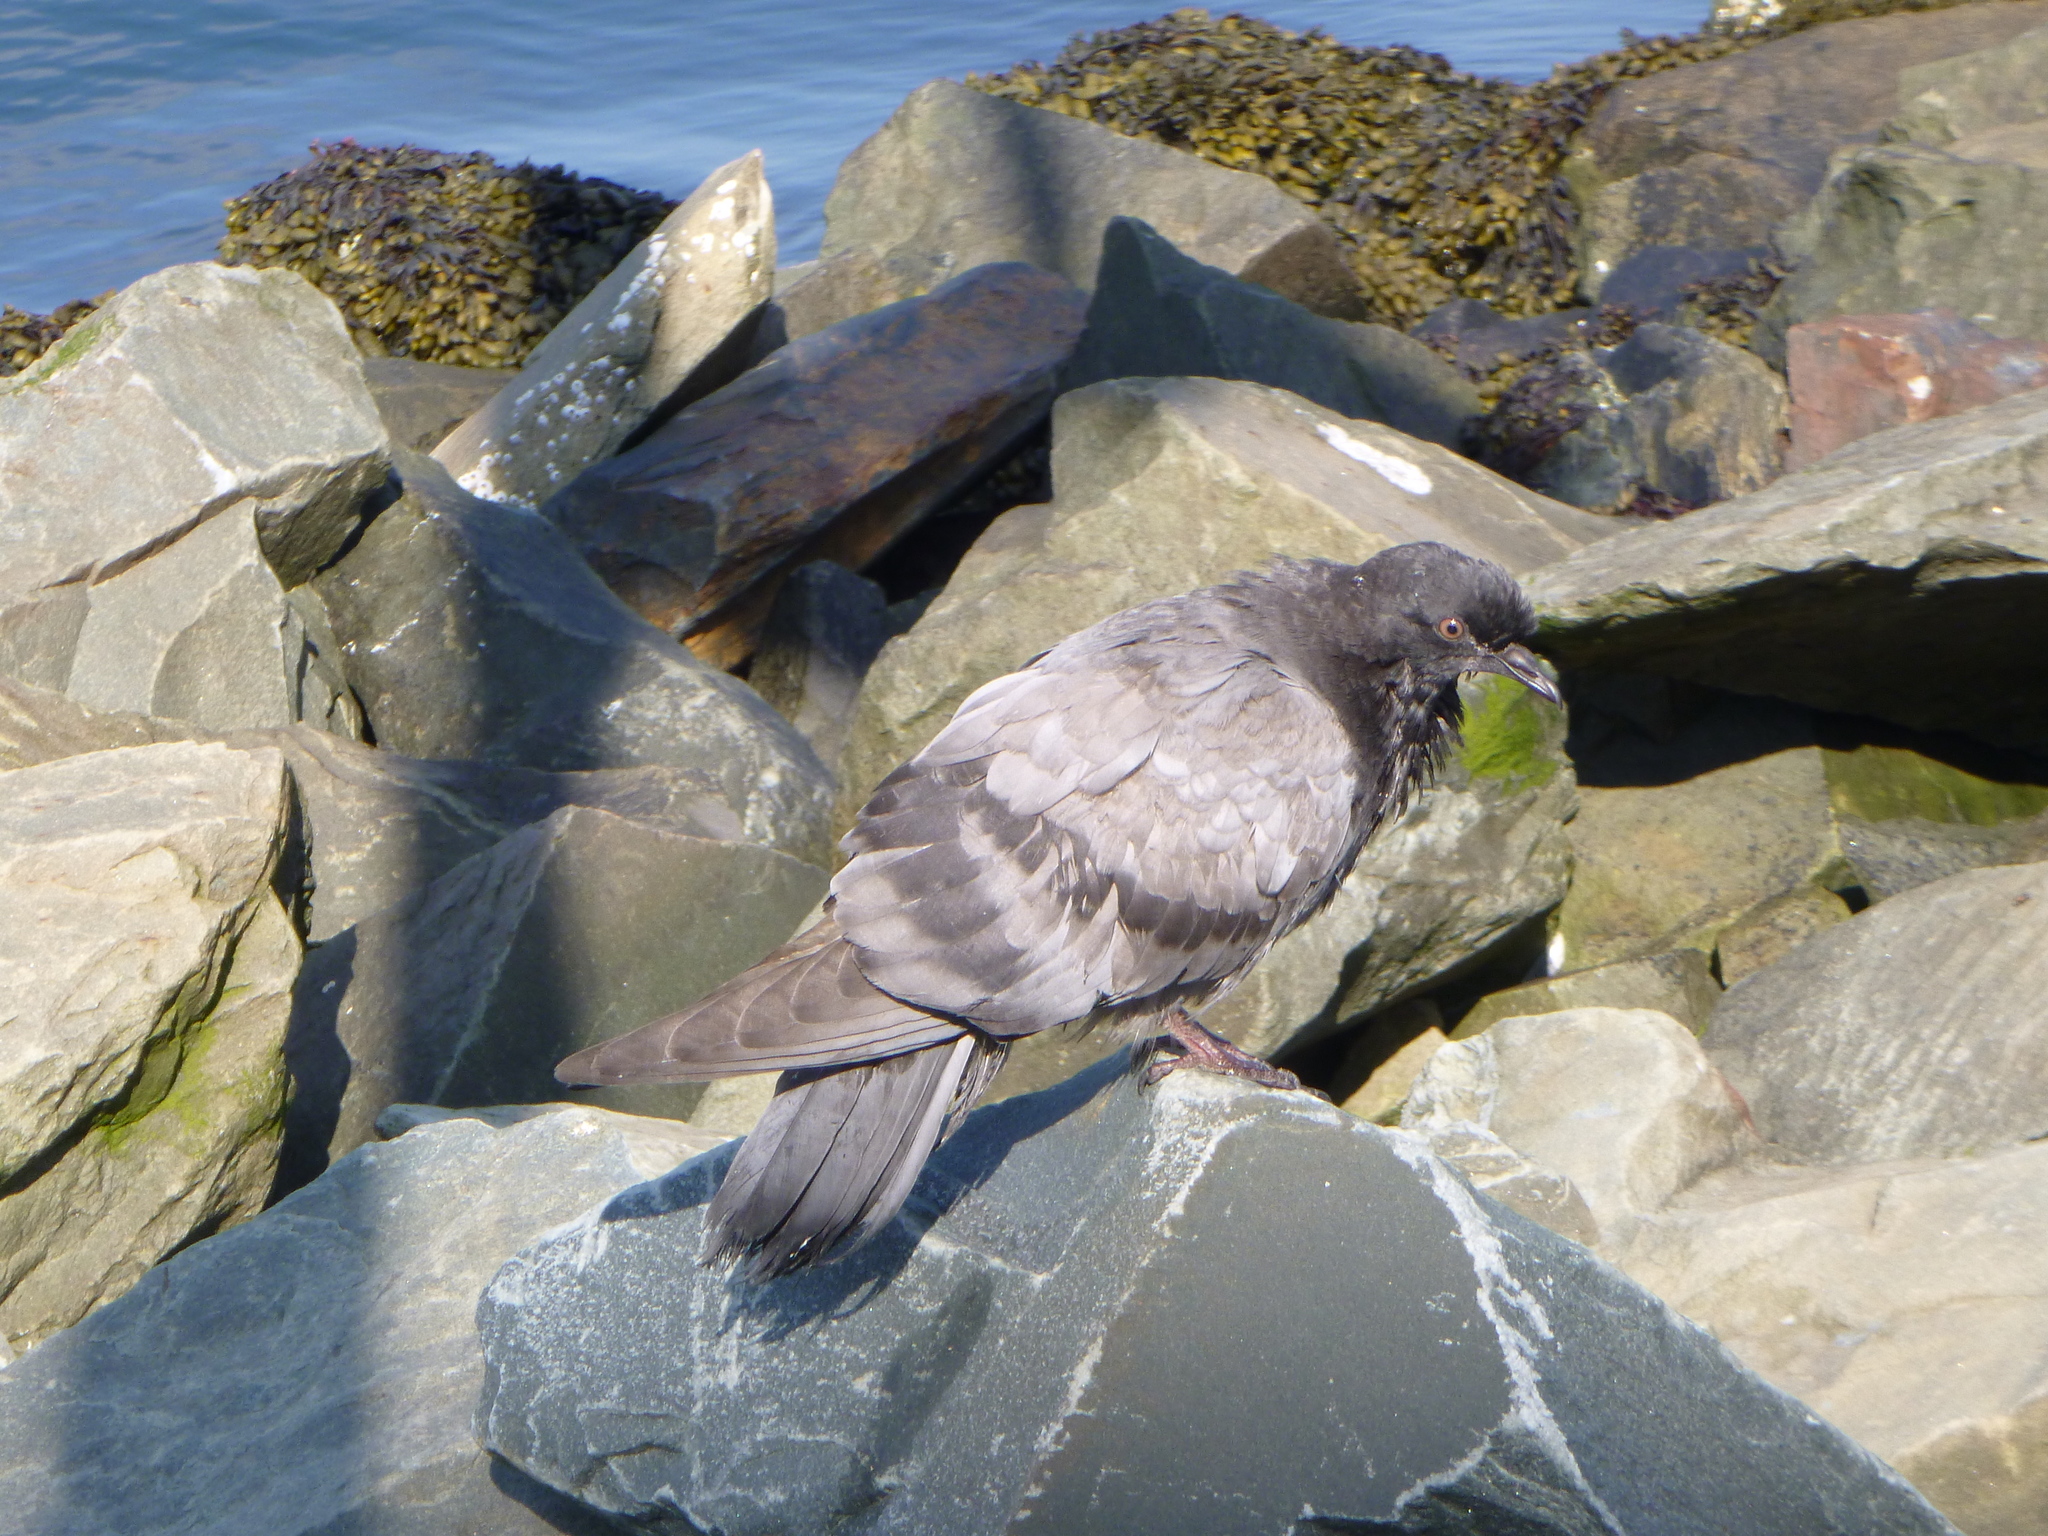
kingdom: Animalia
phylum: Chordata
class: Aves
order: Columbiformes
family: Columbidae
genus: Columba
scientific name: Columba livia
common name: Rock pigeon
